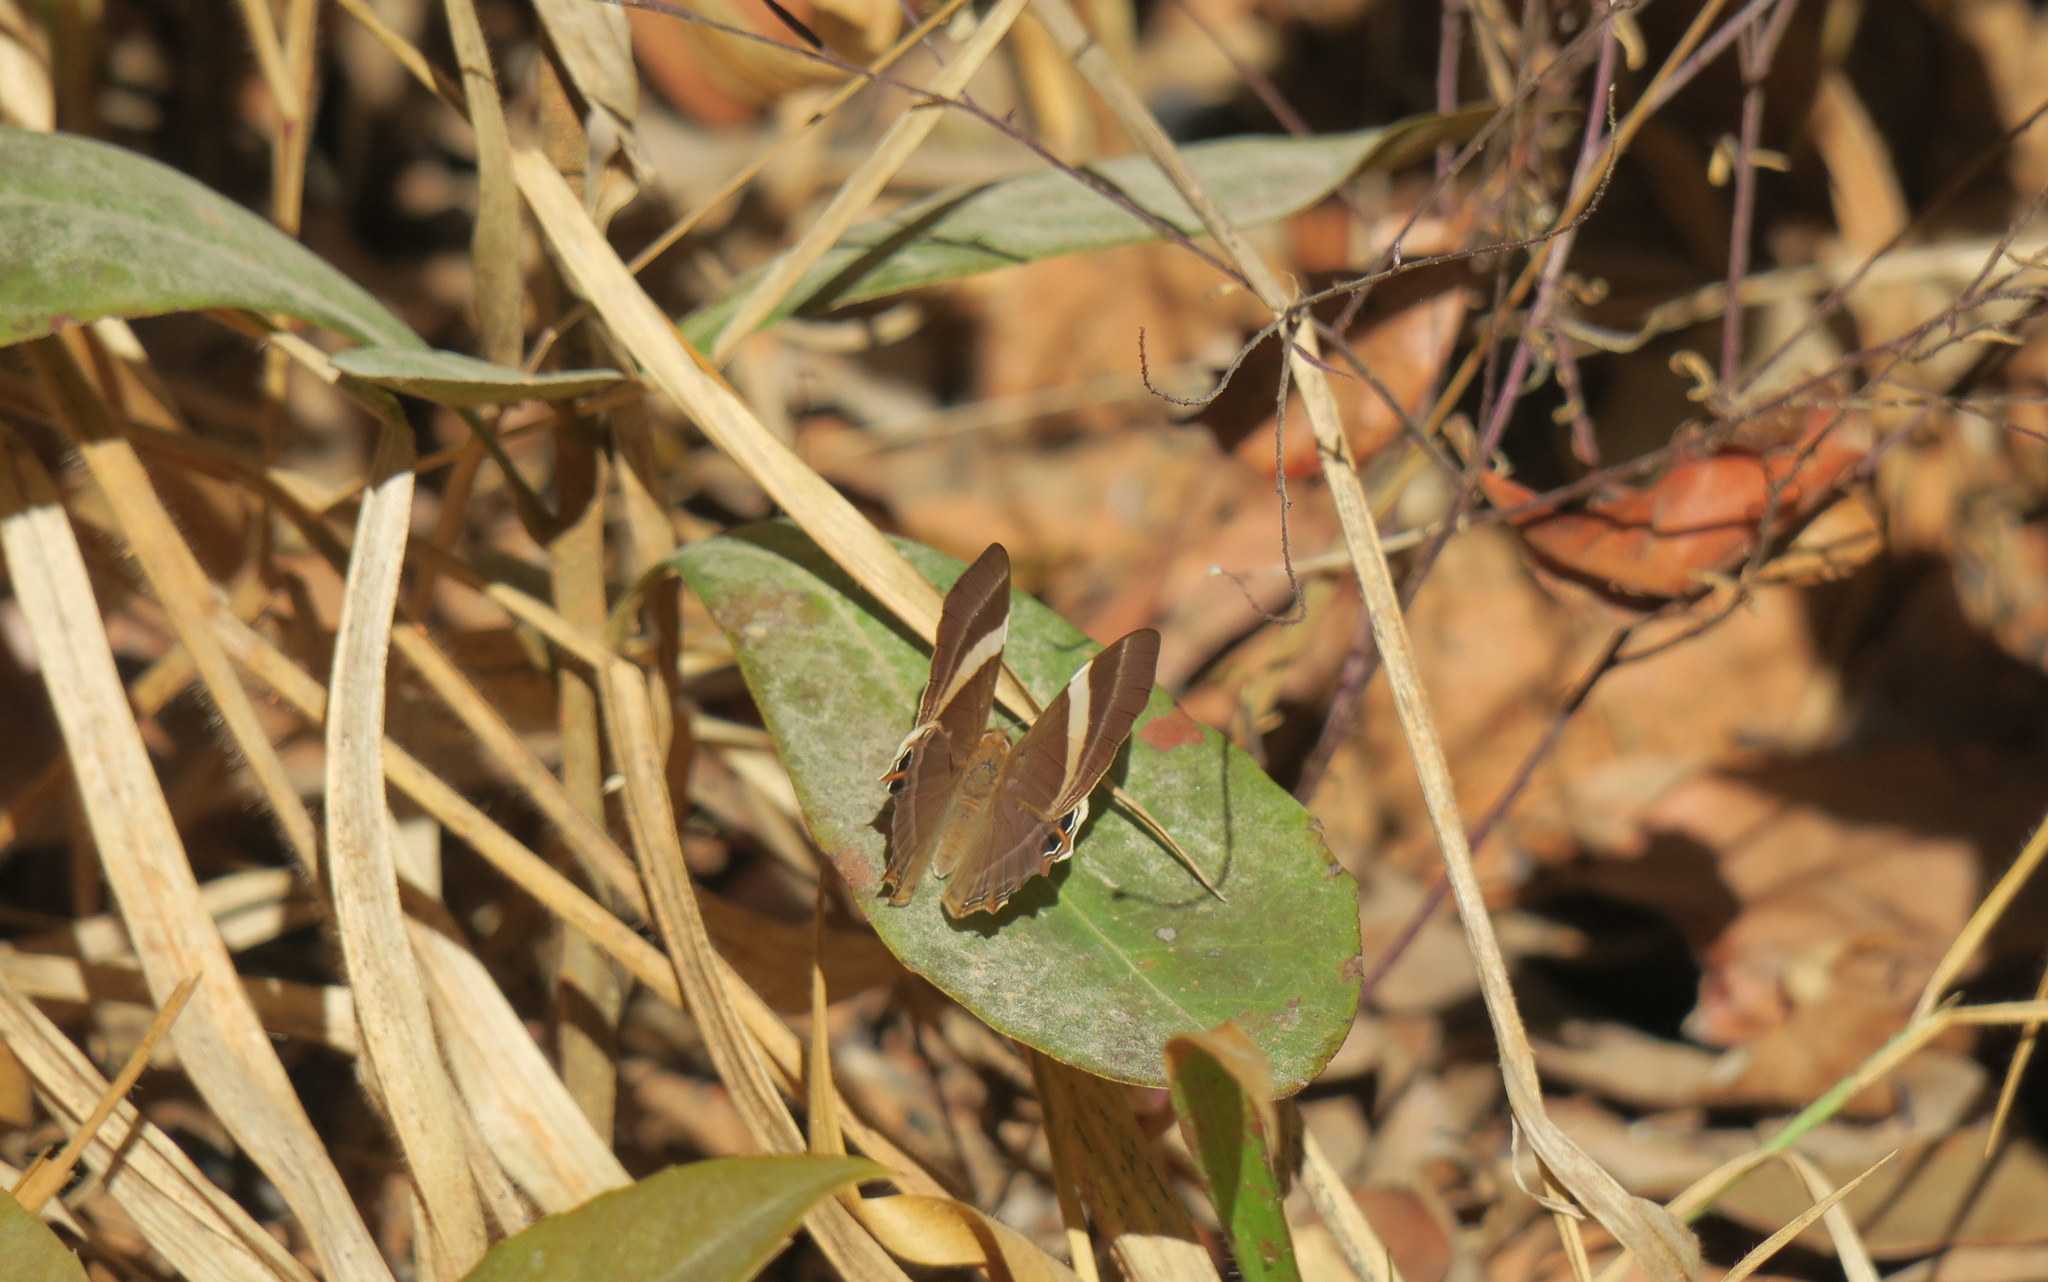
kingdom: Animalia
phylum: Arthropoda
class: Insecta
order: Lepidoptera
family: Lycaenidae
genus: Abisara
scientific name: Abisara neophron
